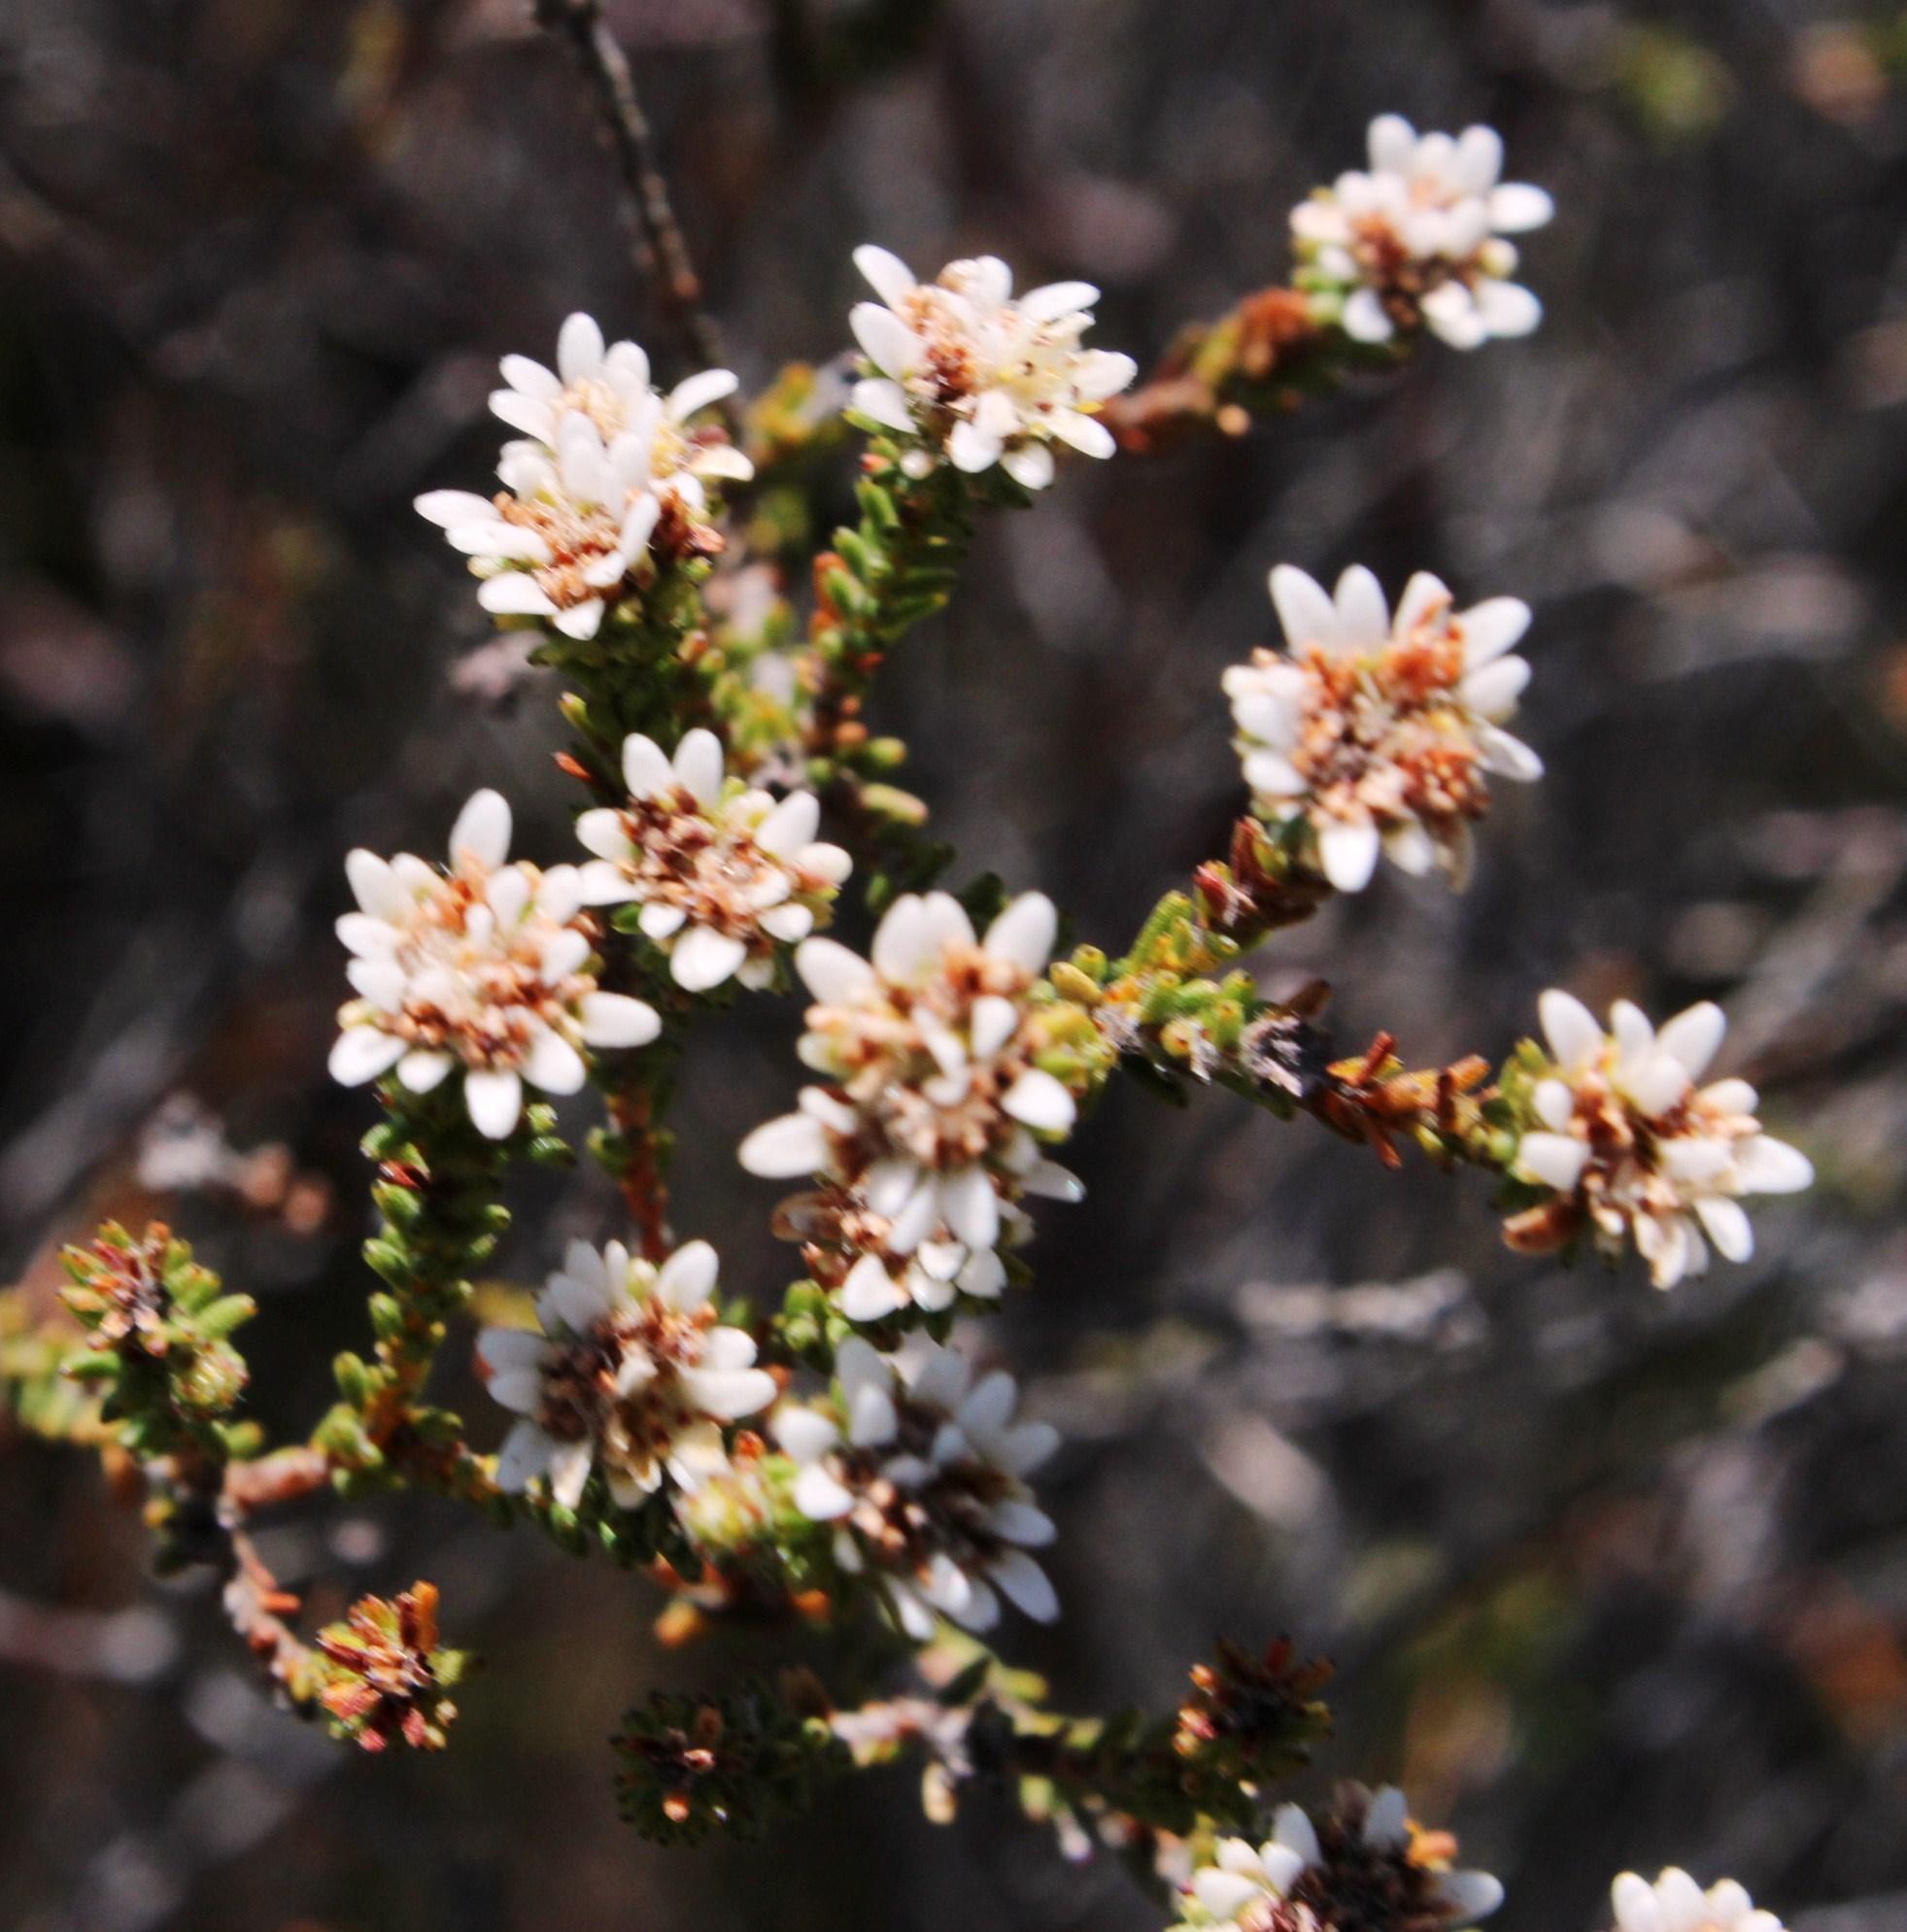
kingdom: Plantae
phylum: Tracheophyta
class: Magnoliopsida
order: Bruniales
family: Bruniaceae
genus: Staavia
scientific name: Staavia radiata
